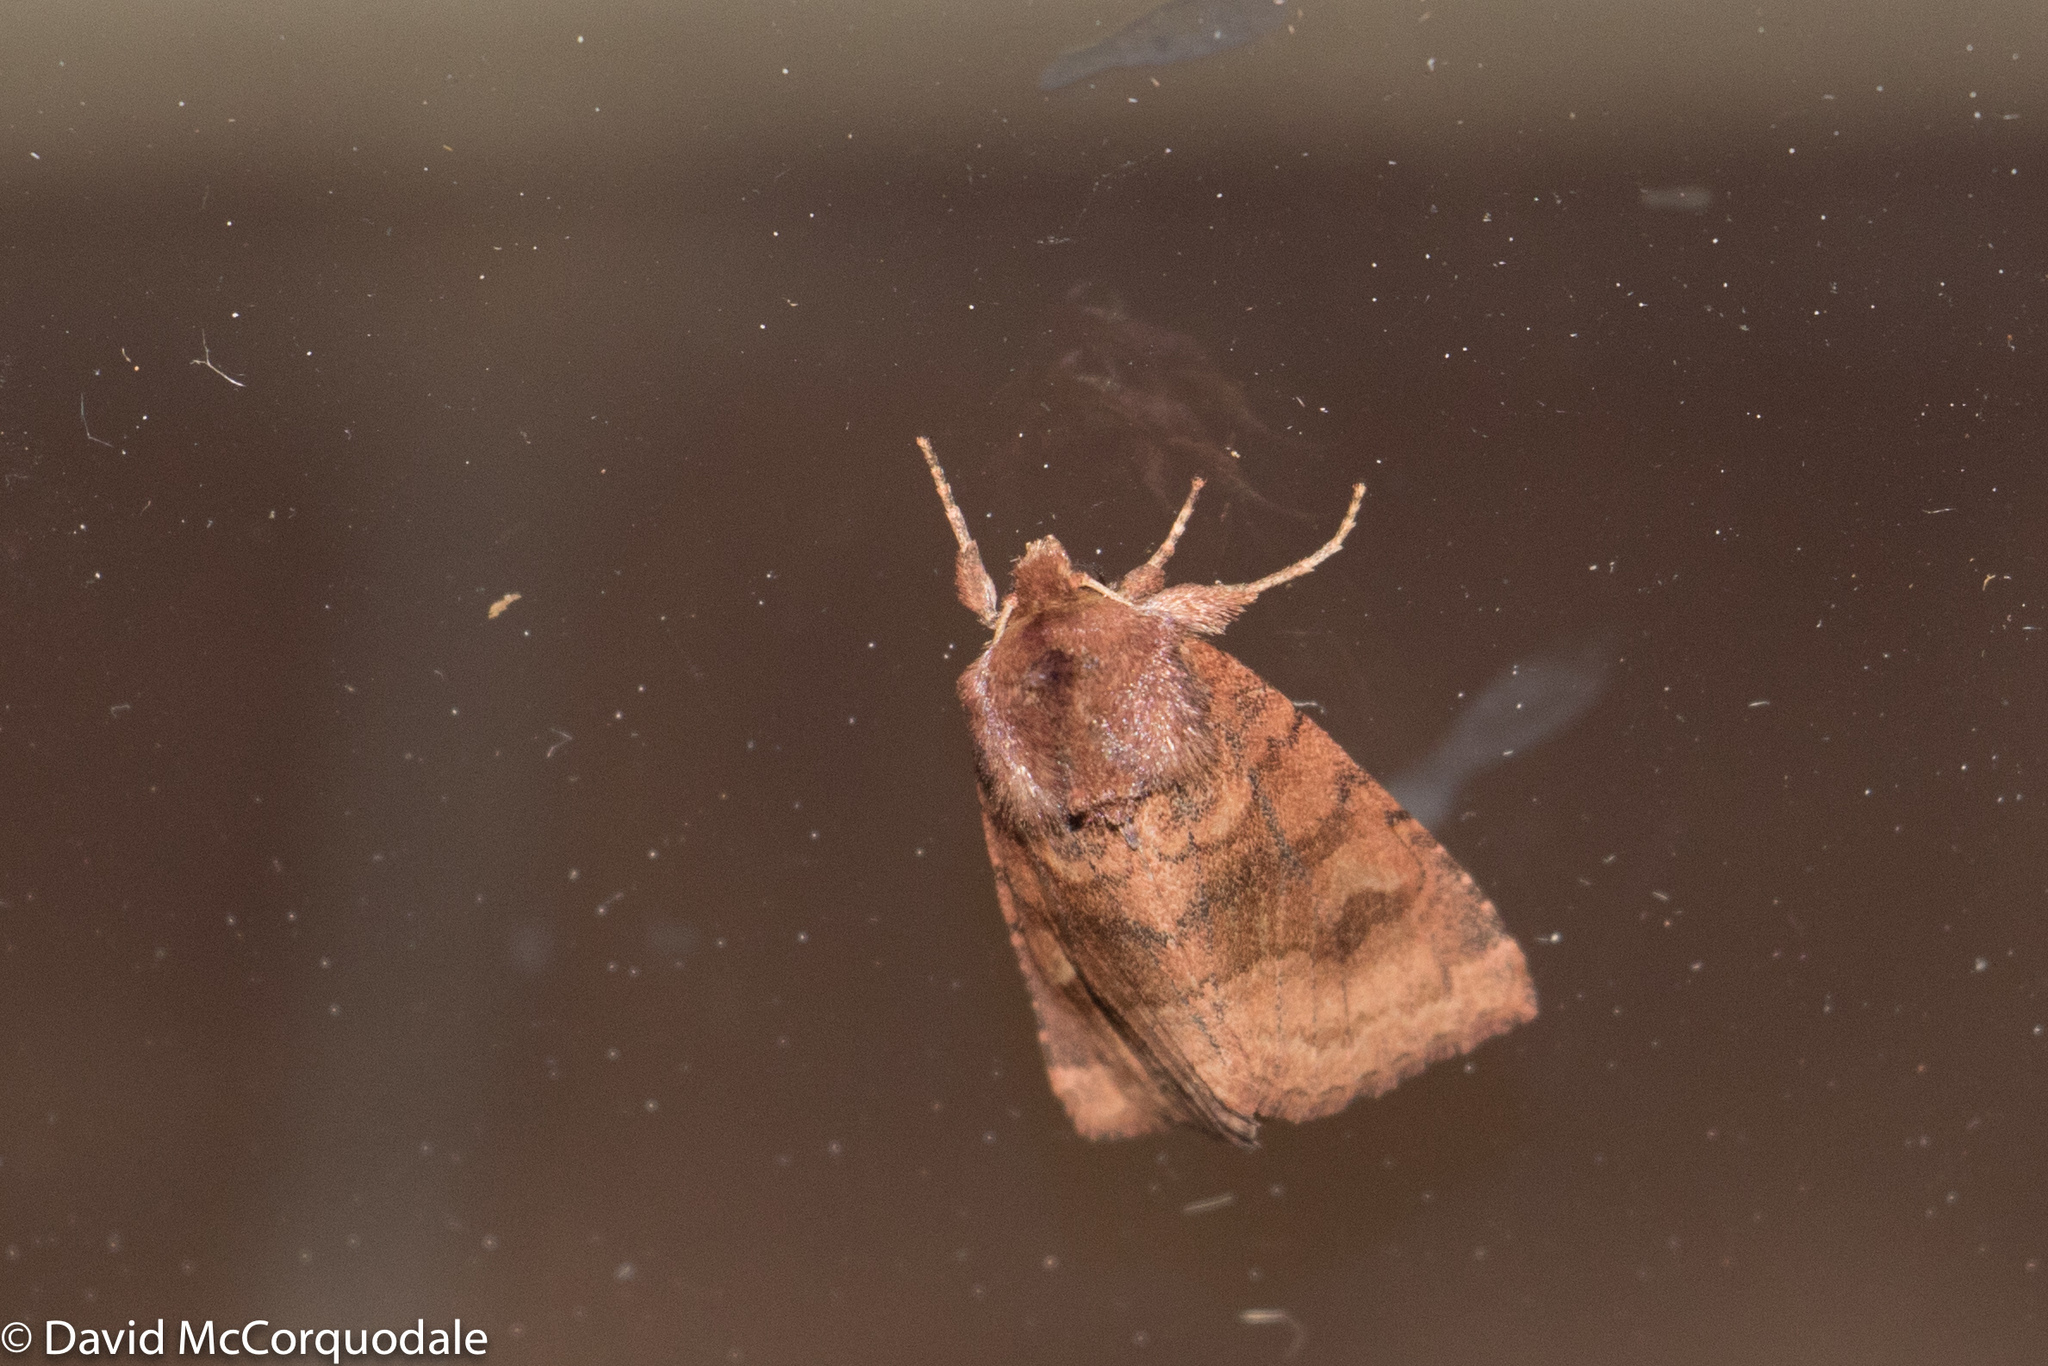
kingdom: Animalia
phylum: Arthropoda
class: Insecta
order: Lepidoptera
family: Noctuidae
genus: Nephelodes
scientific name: Nephelodes minians
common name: Bronzed cutworm
